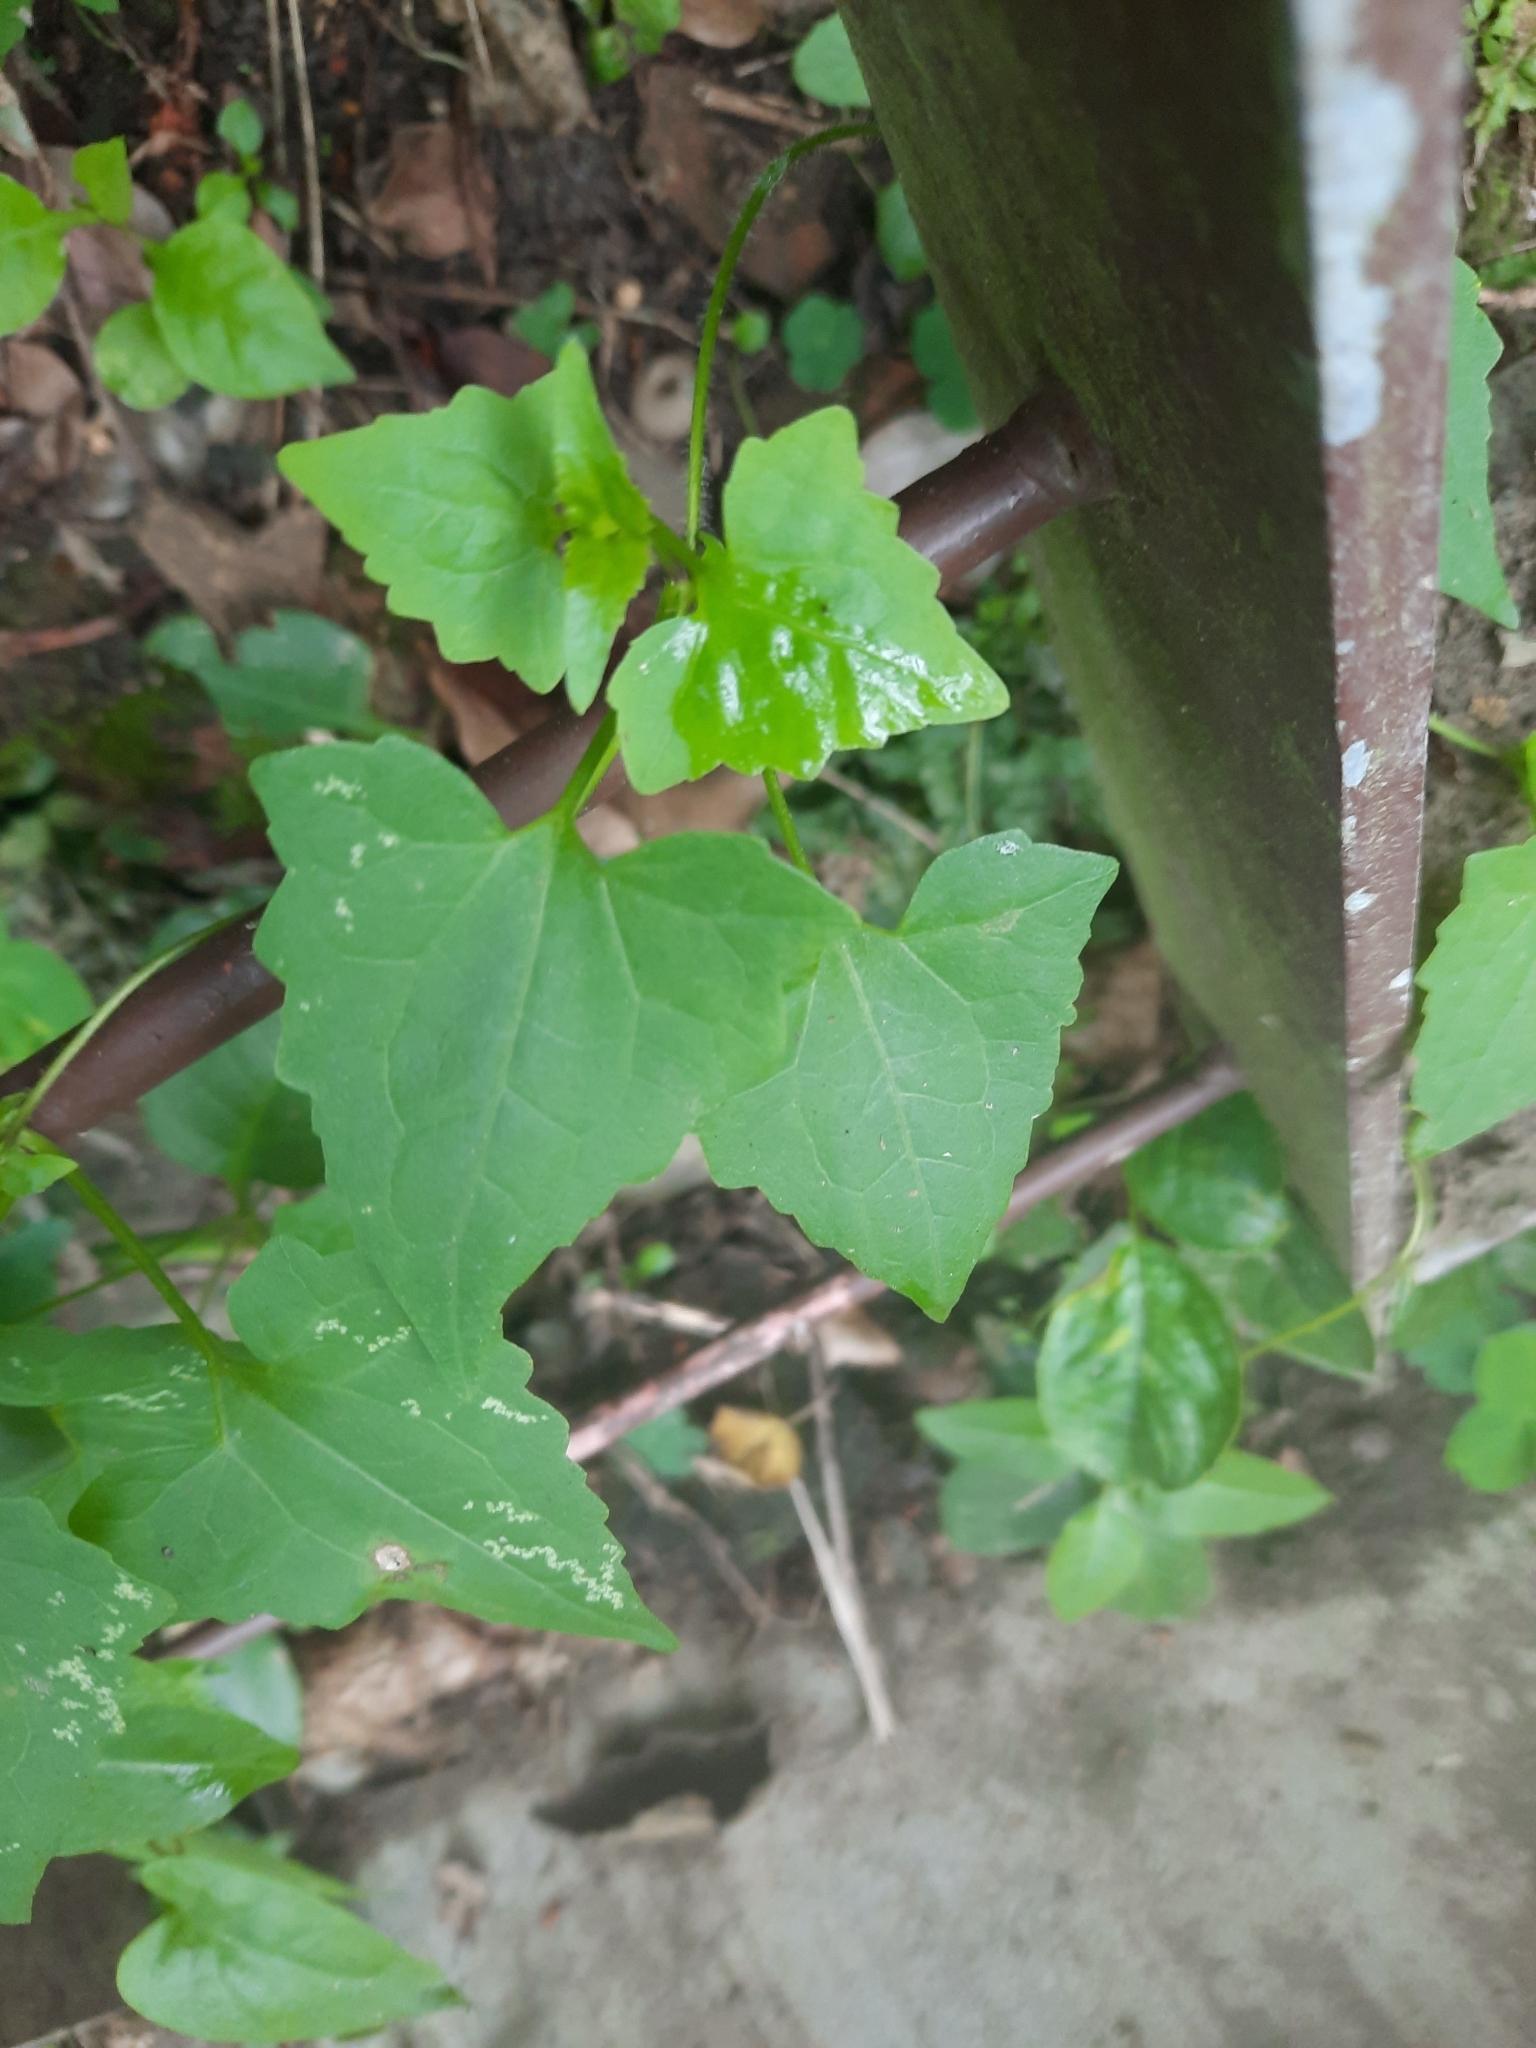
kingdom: Plantae
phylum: Tracheophyta
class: Magnoliopsida
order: Asterales
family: Asteraceae
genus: Mikania
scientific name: Mikania micrantha
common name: Mile-a-minute
